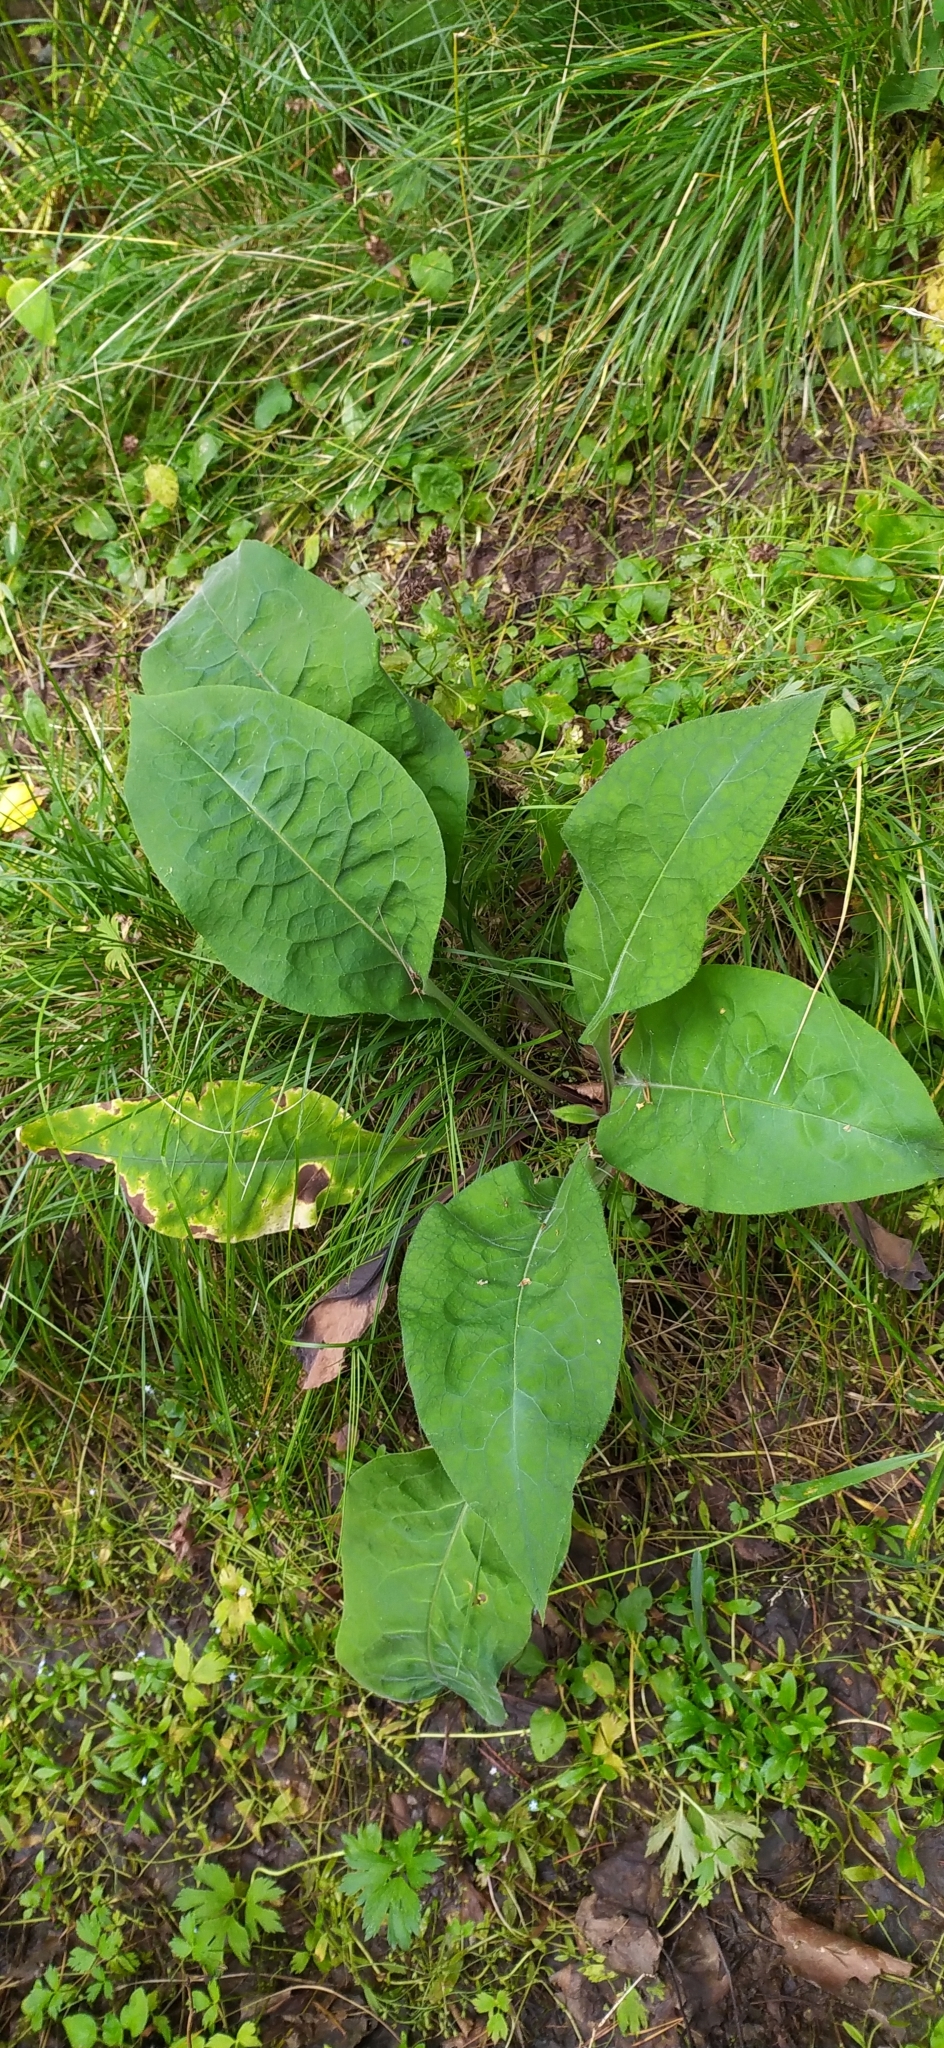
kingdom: Plantae
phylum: Tracheophyta
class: Magnoliopsida
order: Boraginales
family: Boraginaceae
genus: Pulmonaria
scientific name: Pulmonaria mollis
